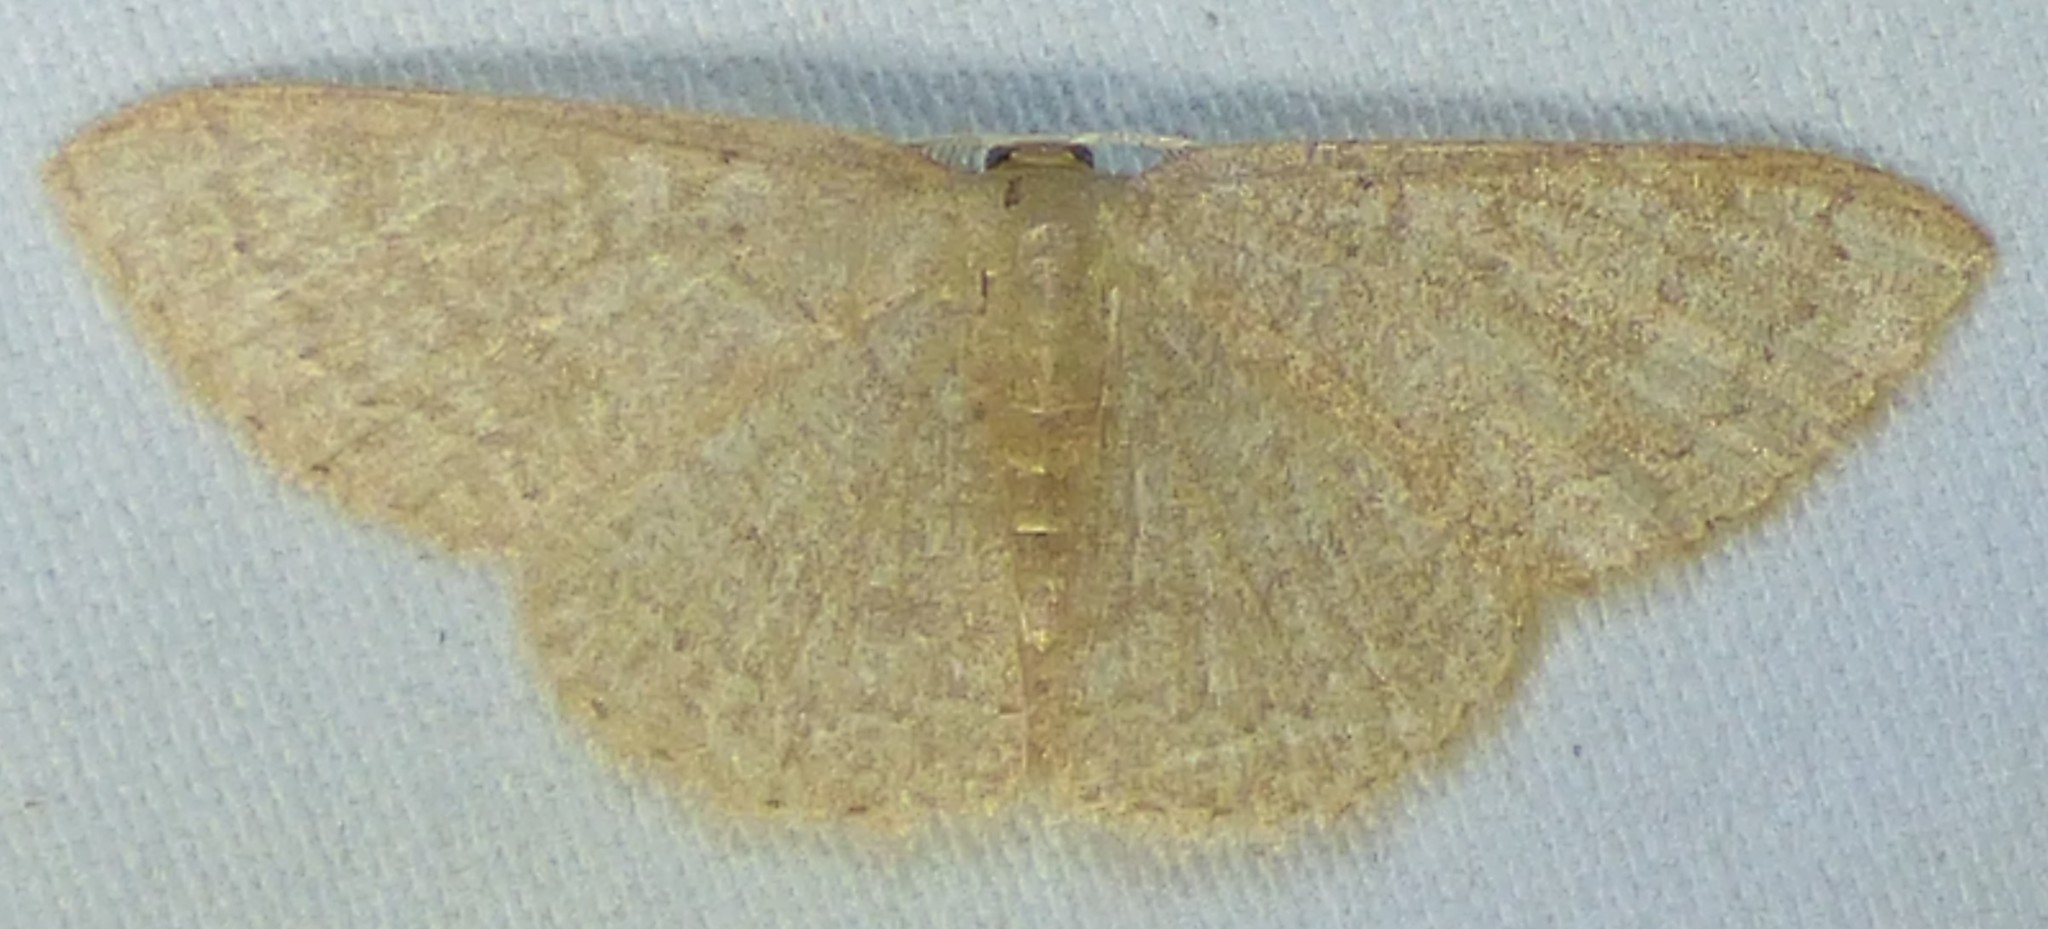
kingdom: Animalia
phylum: Arthropoda
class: Insecta
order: Lepidoptera
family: Geometridae
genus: Pleuroprucha
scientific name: Pleuroprucha insulsaria
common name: Common tan wave
